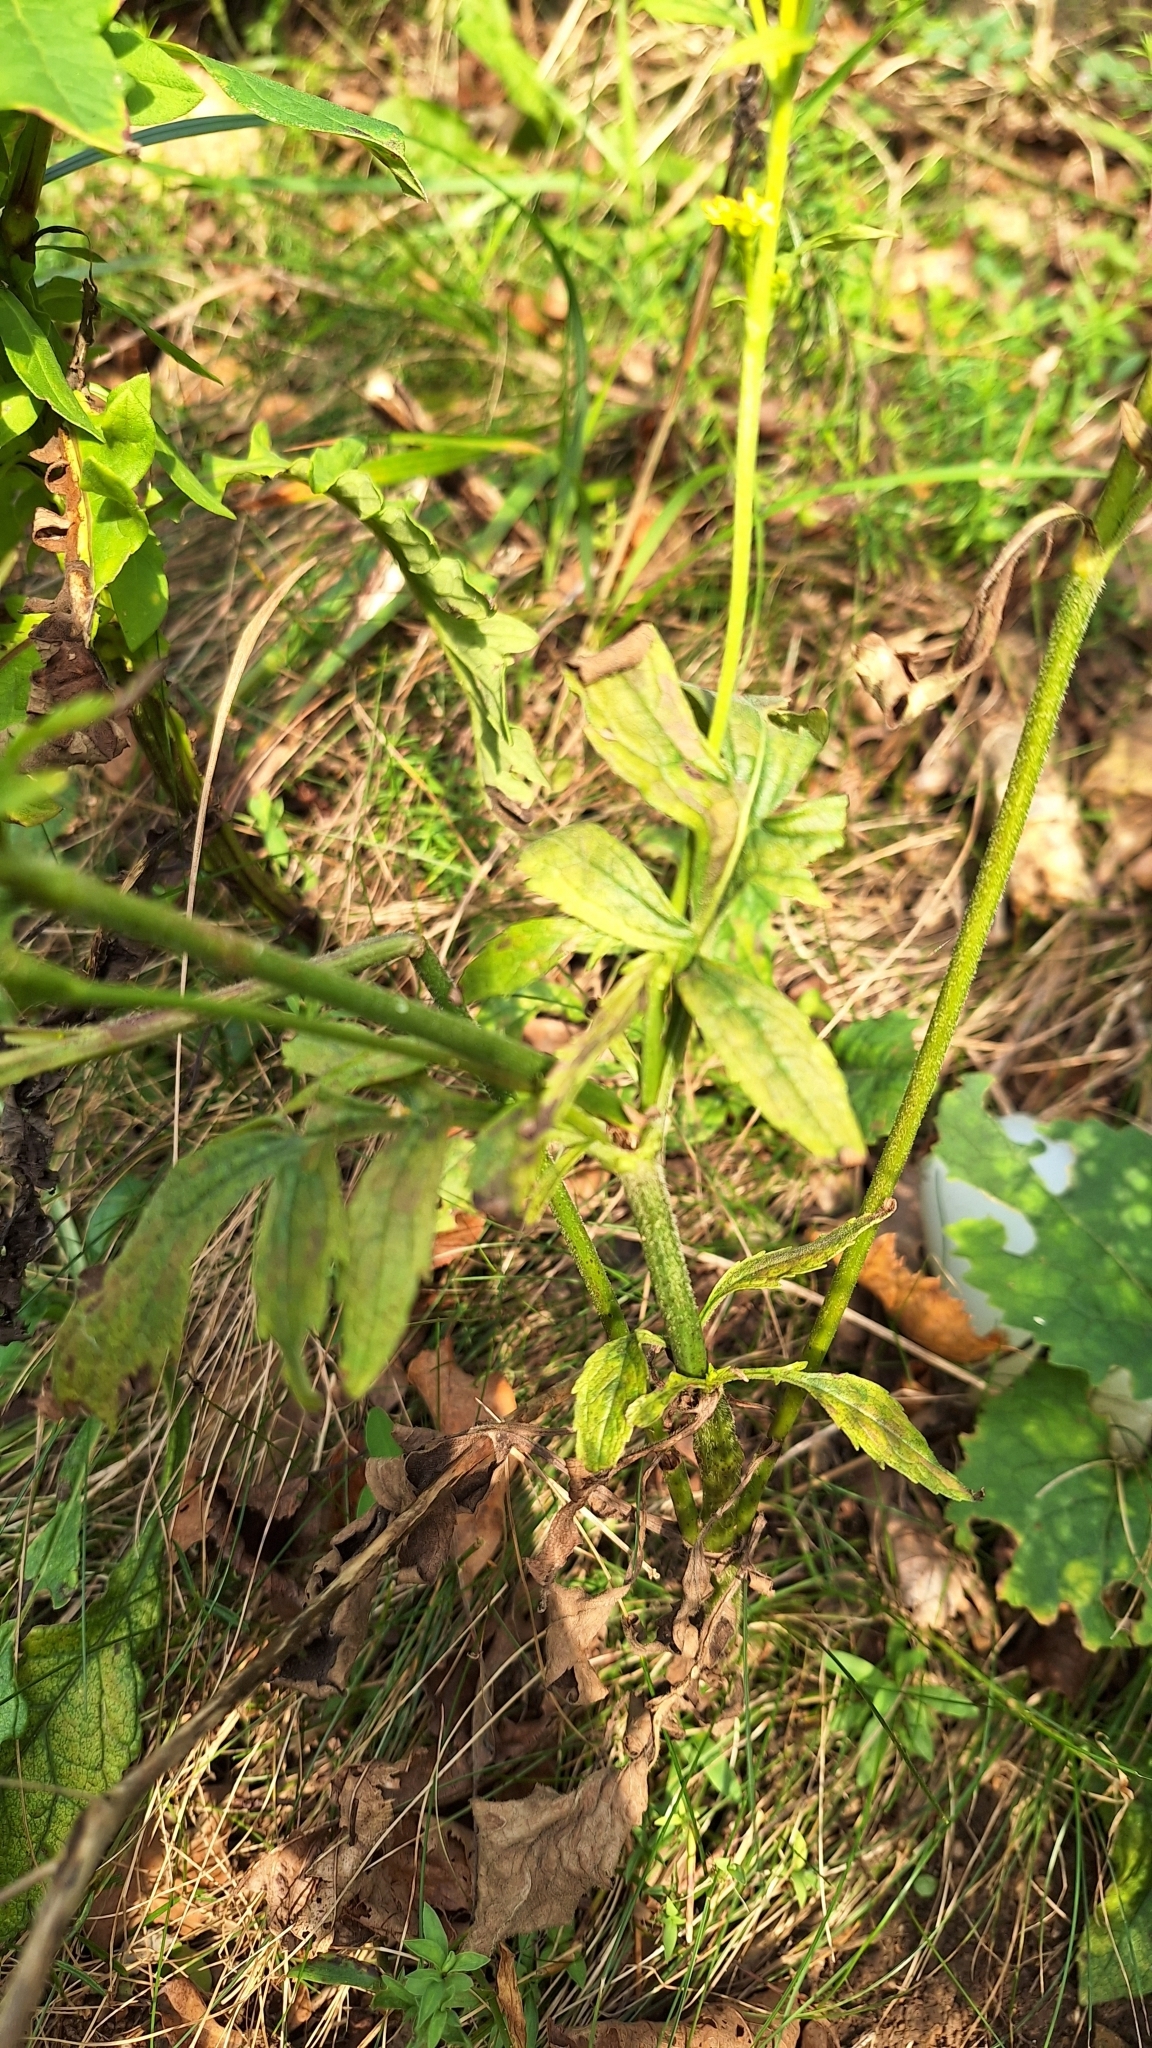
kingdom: Plantae
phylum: Tracheophyta
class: Magnoliopsida
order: Dipsacales
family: Caprifoliaceae
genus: Patrinia
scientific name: Patrinia scabiosifolia
